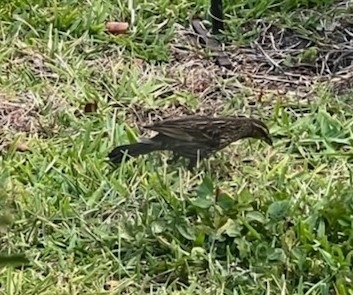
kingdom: Animalia
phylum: Chordata
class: Aves
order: Passeriformes
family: Icteridae
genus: Agelaius
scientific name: Agelaius phoeniceus
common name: Red-winged blackbird
